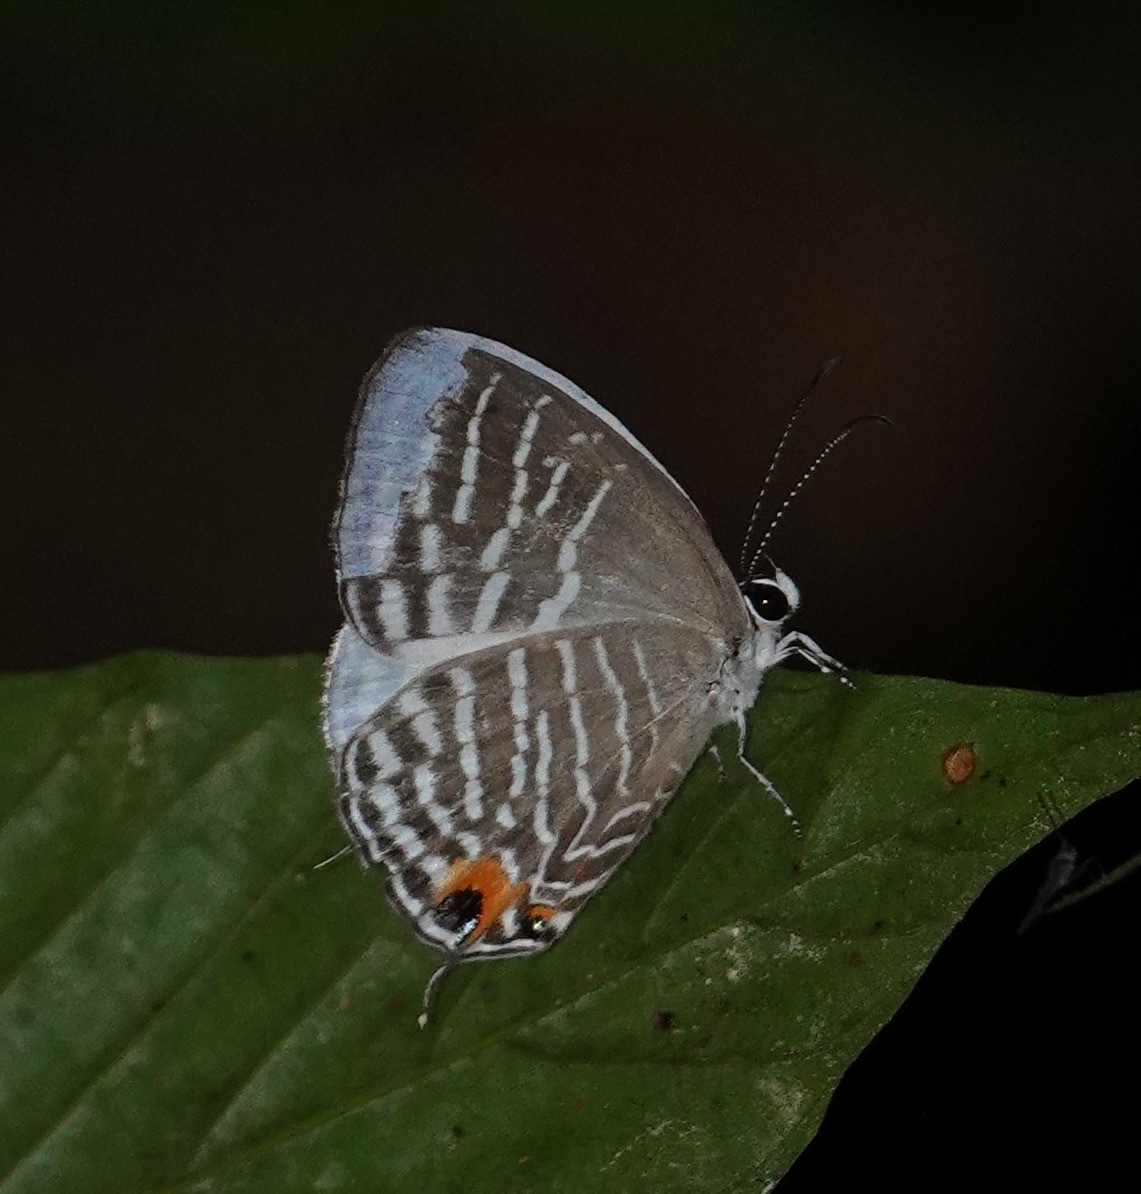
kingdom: Animalia
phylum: Arthropoda
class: Insecta
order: Lepidoptera
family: Lycaenidae
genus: Jamides
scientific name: Jamides pura
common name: White cerulean
